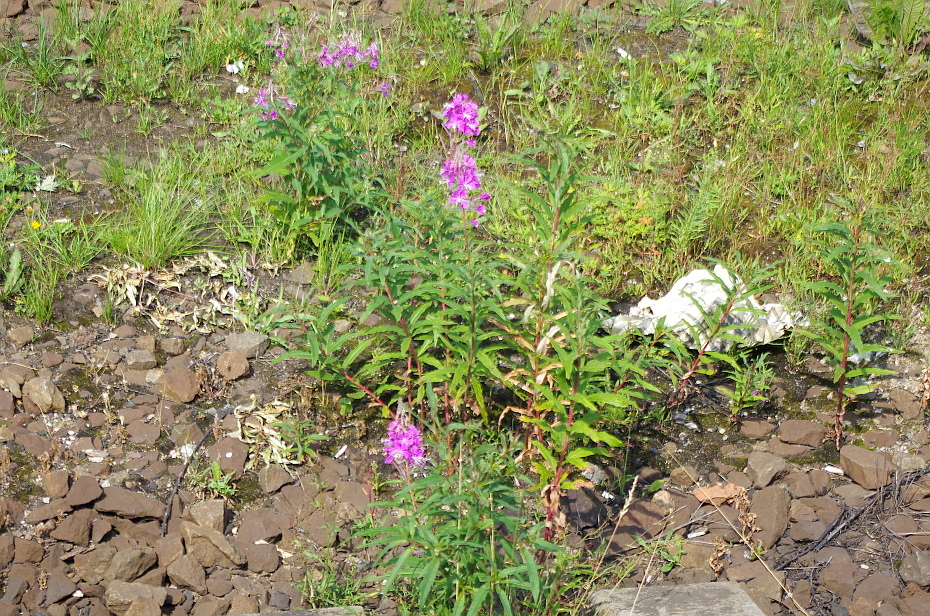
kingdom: Plantae
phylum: Tracheophyta
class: Magnoliopsida
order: Myrtales
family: Onagraceae
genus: Chamaenerion
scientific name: Chamaenerion angustifolium
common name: Fireweed
